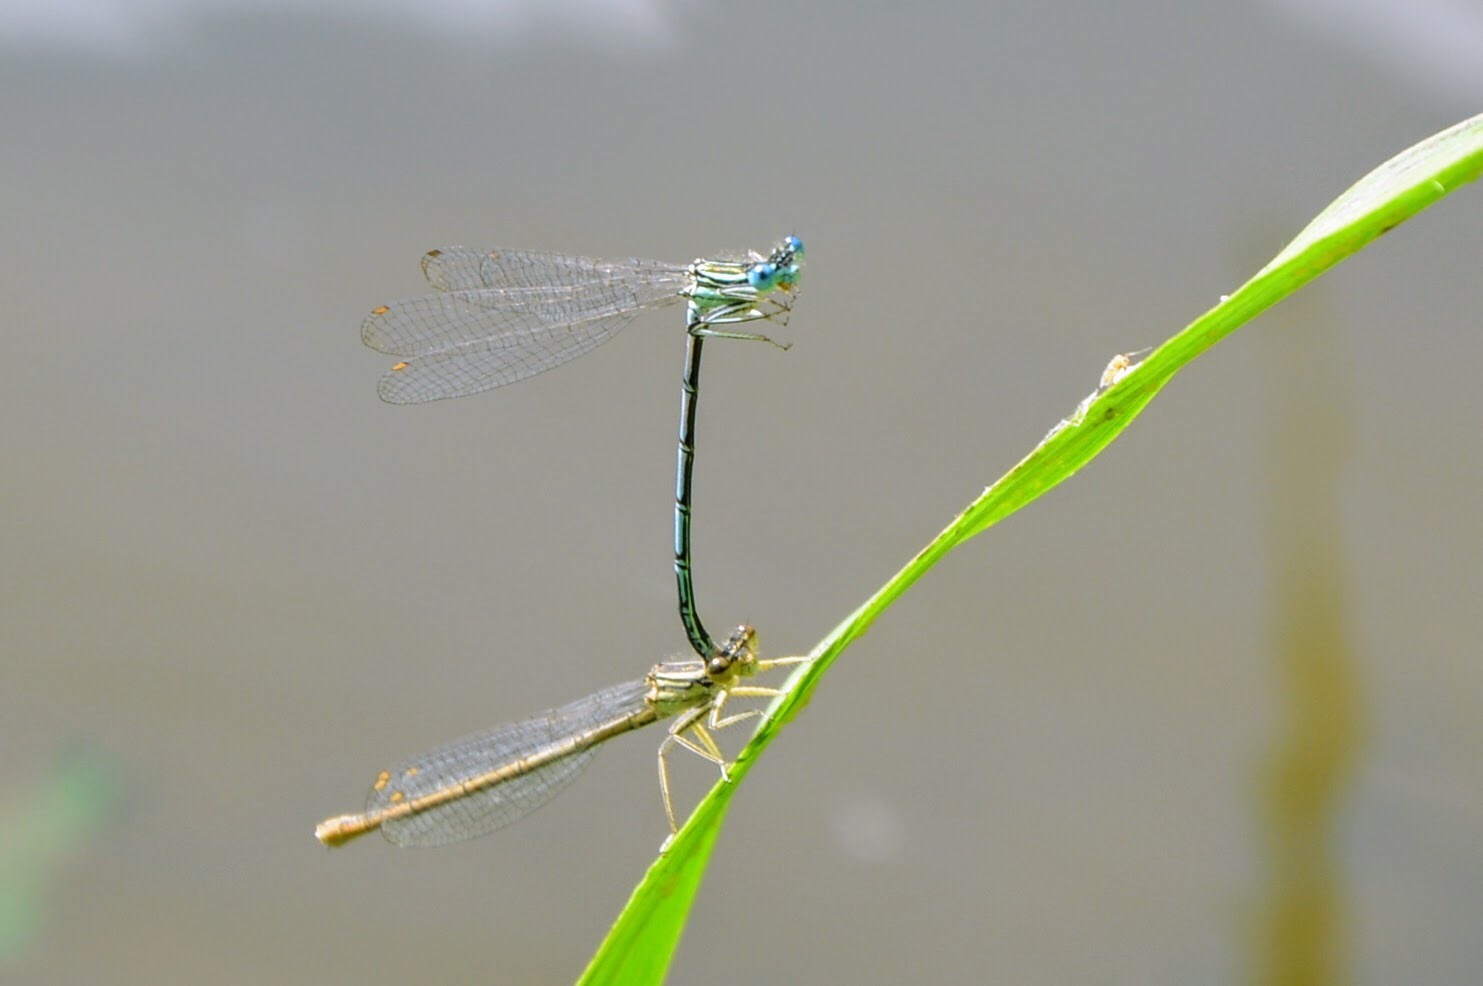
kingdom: Animalia
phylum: Arthropoda
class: Insecta
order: Odonata
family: Platycnemididae
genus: Platycnemis
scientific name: Platycnemis pennipes
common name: White-legged damselfly
